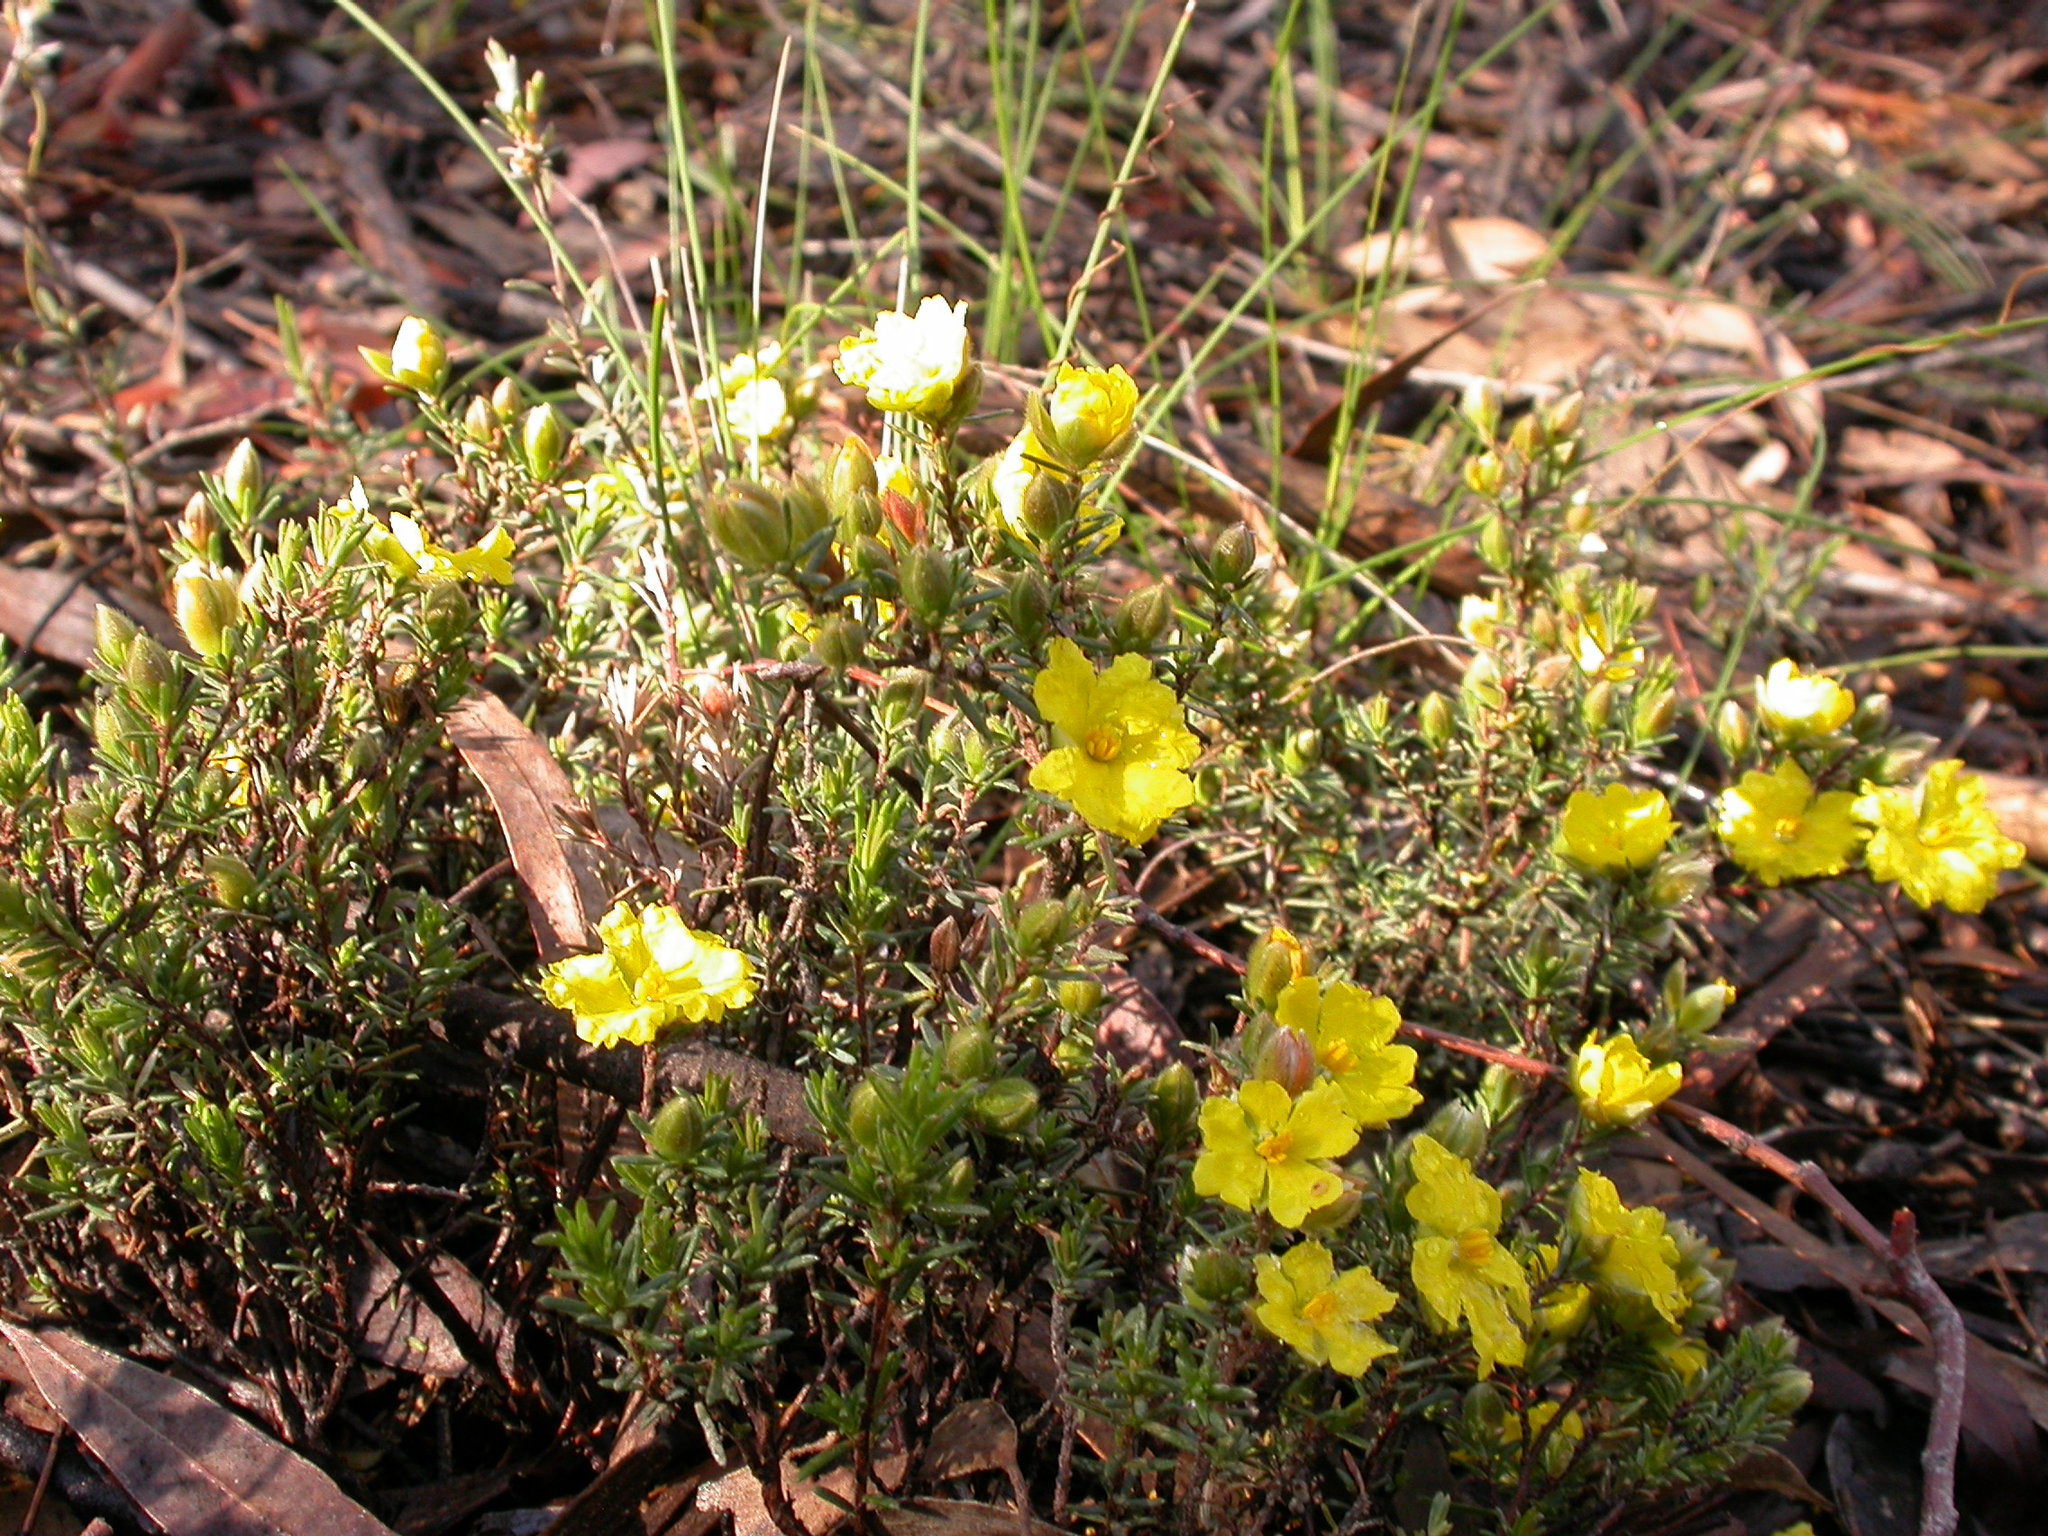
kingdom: Plantae
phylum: Tracheophyta
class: Magnoliopsida
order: Dilleniales
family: Dilleniaceae
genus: Hibbertia
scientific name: Hibbertia calycina
